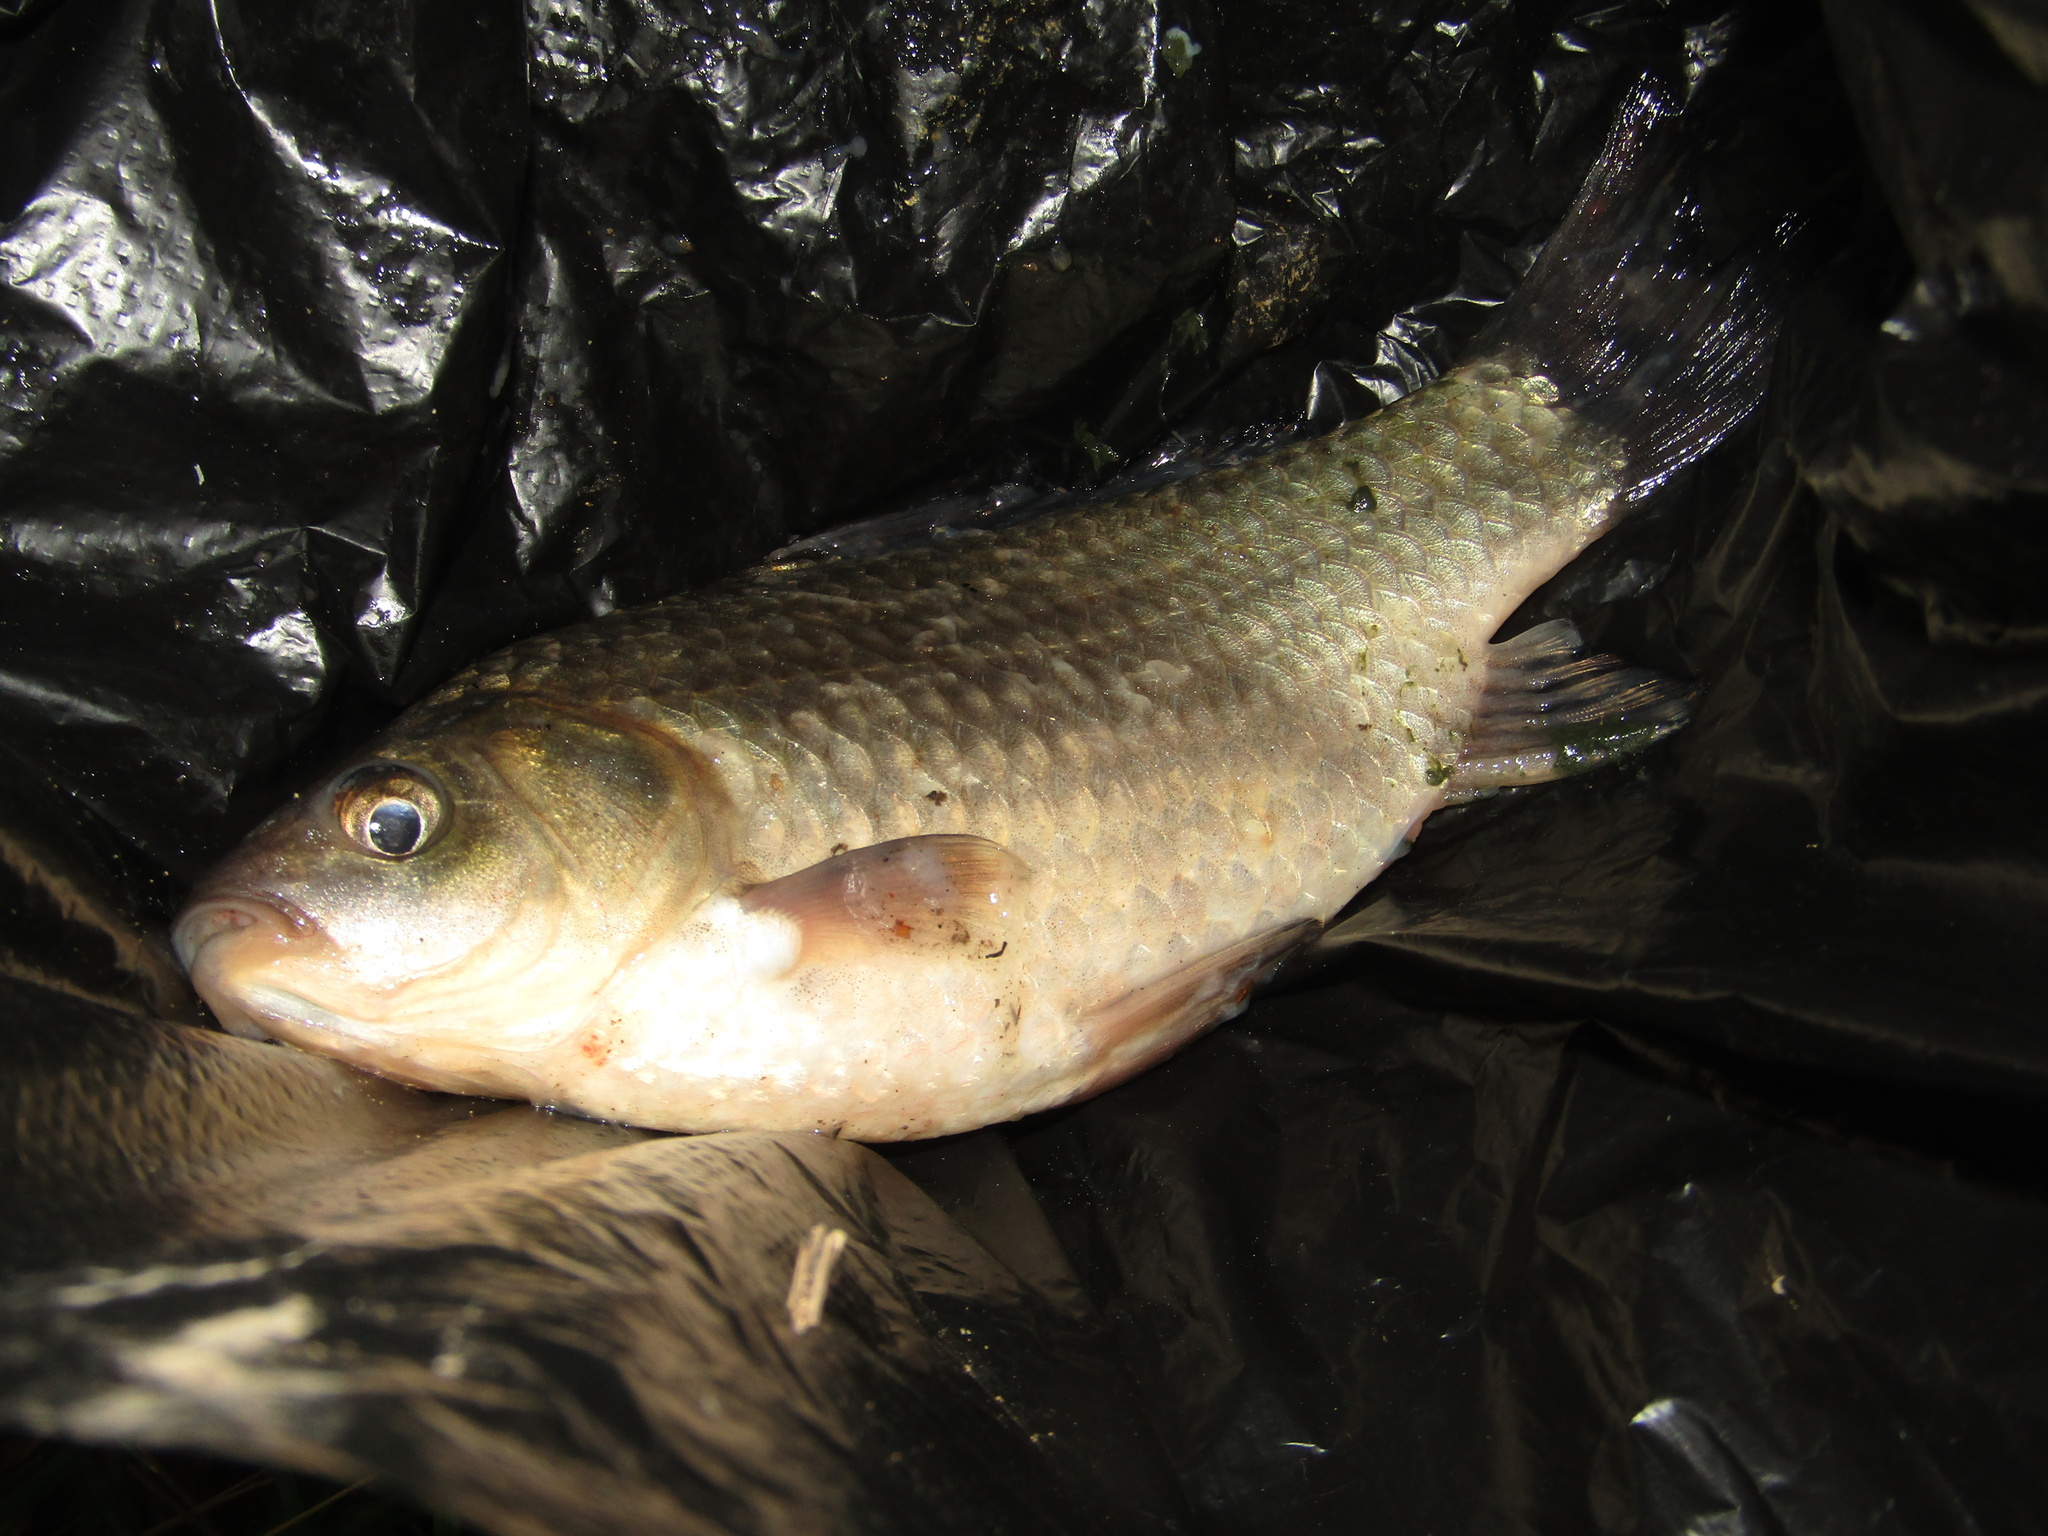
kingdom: Animalia
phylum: Chordata
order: Cypriniformes
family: Cyprinidae
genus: Carassius
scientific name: Carassius gibelio
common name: Prussian carp
